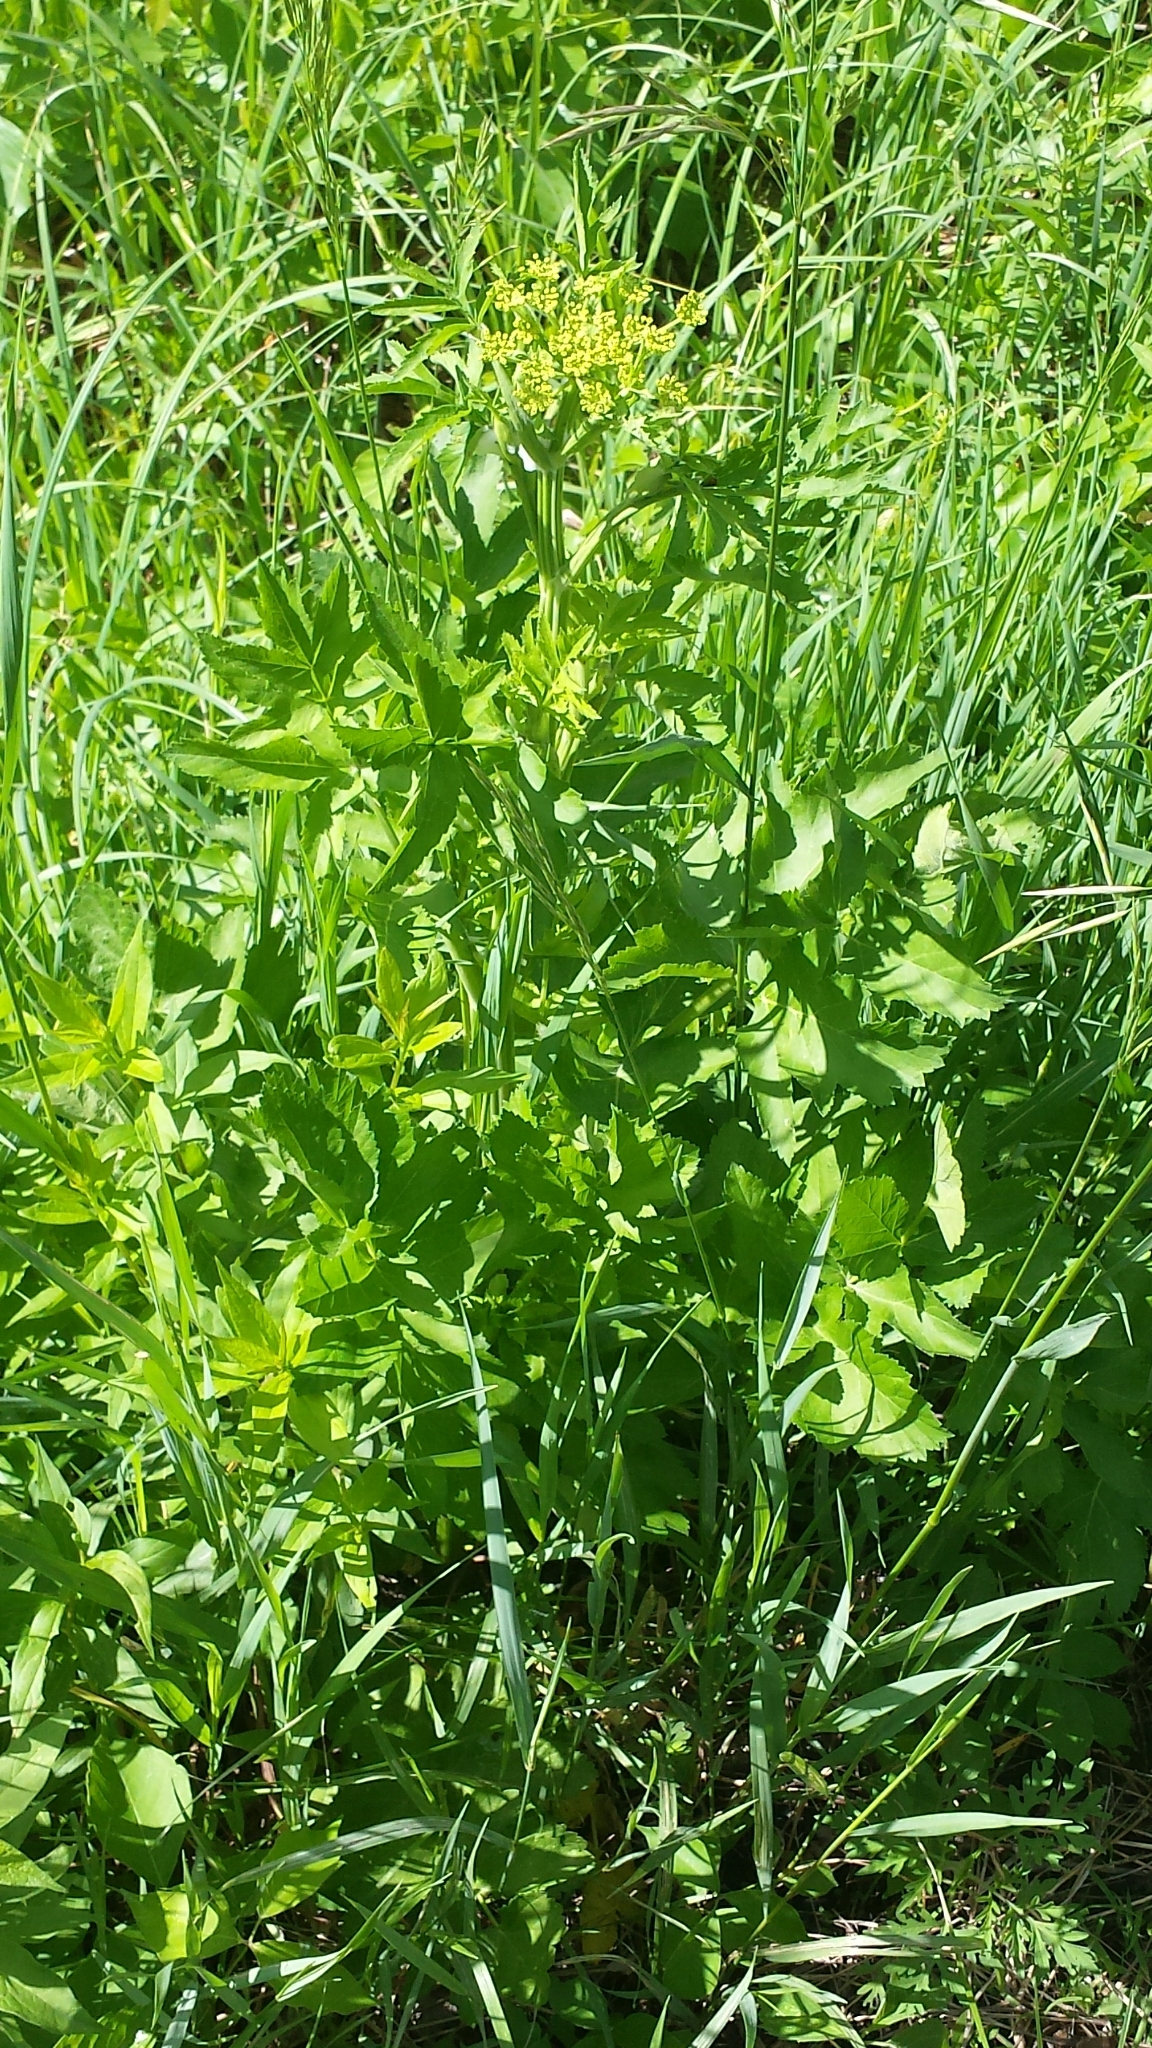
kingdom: Plantae
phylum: Tracheophyta
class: Magnoliopsida
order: Apiales
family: Apiaceae
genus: Pastinaca
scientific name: Pastinaca sativa
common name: Wild parsnip
